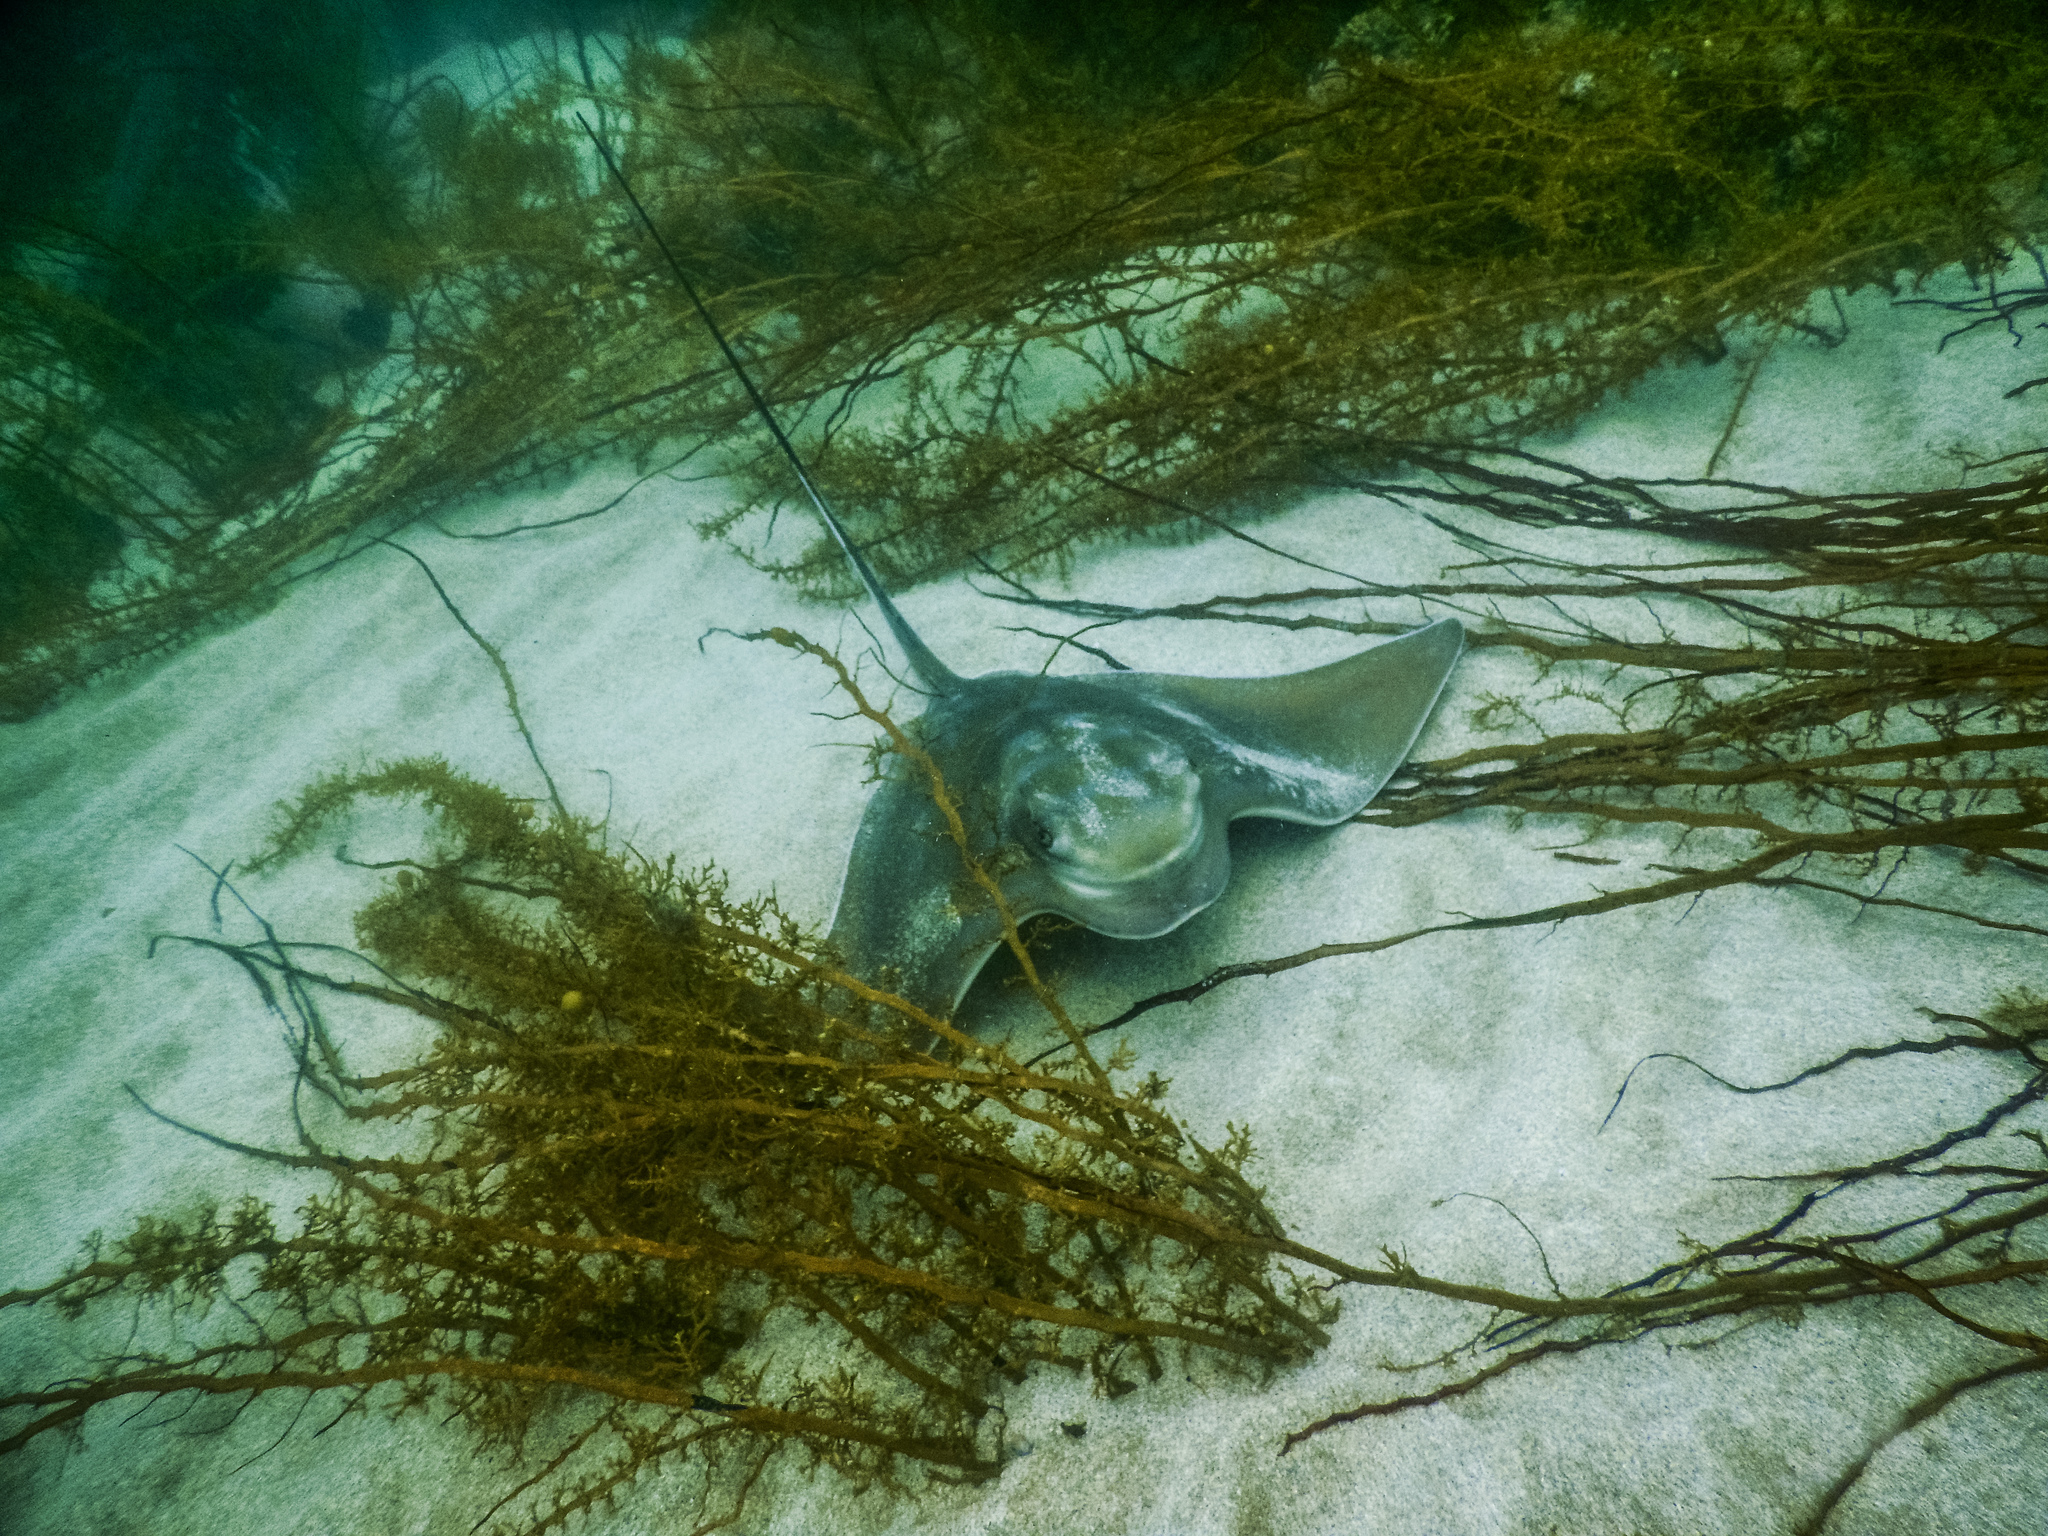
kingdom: Animalia
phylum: Chordata
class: Elasmobranchii
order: Myliobatiformes
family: Myliobatidae
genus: Myliobatis
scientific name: Myliobatis tenuicaudatus
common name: Eagle ray
